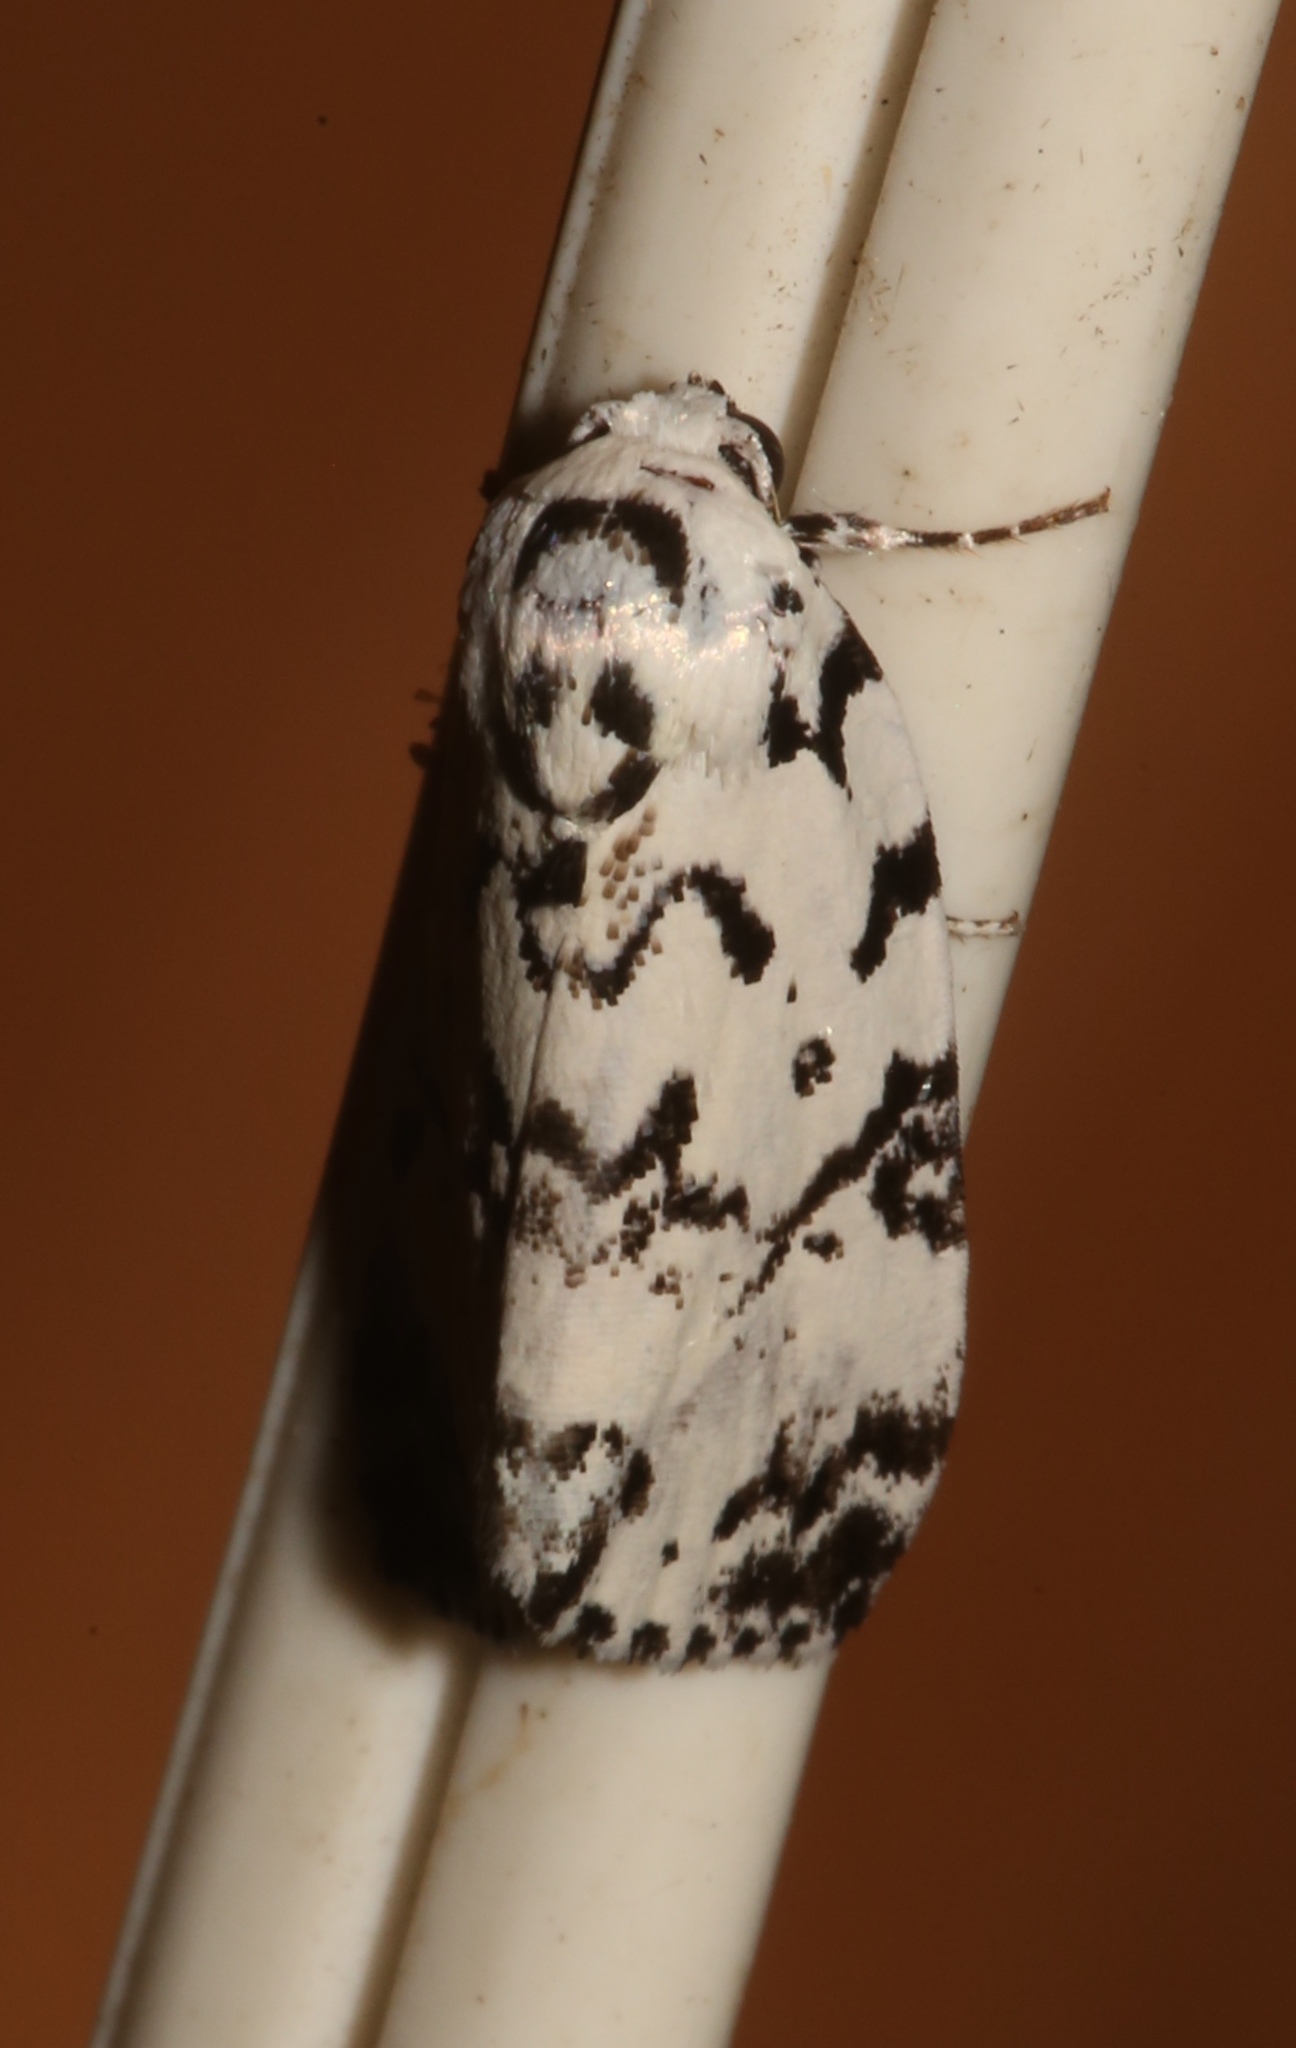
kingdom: Animalia
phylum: Arthropoda
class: Insecta
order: Lepidoptera
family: Noctuidae
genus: Polygrammate
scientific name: Polygrammate hebraeicum
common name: Hebrew moth
